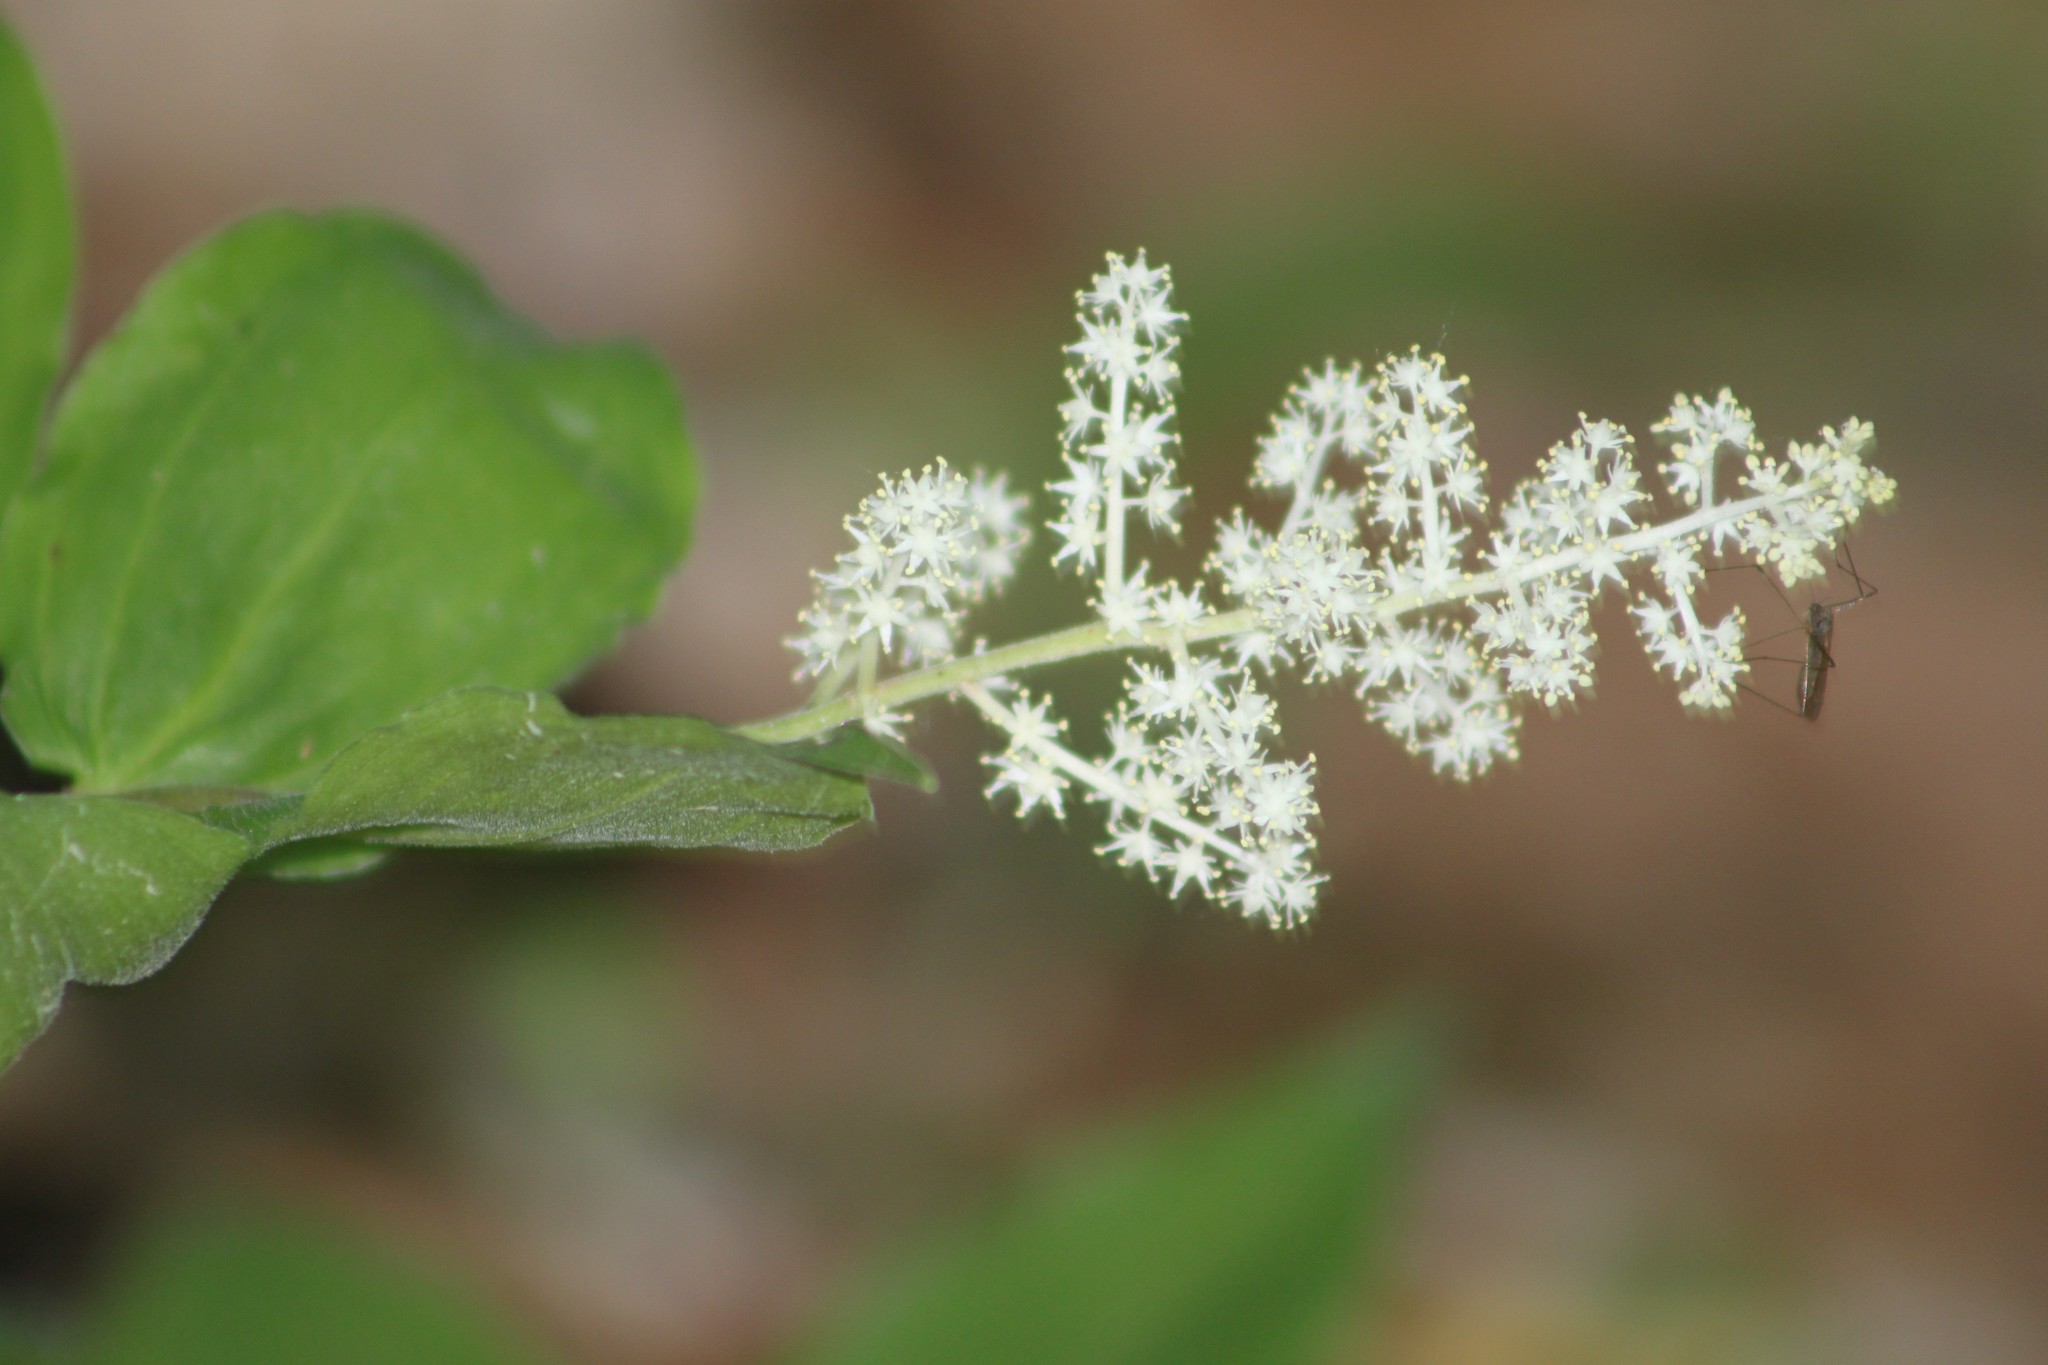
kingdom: Plantae
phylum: Tracheophyta
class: Liliopsida
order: Asparagales
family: Asparagaceae
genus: Maianthemum
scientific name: Maianthemum racemosum
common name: False spikenard
